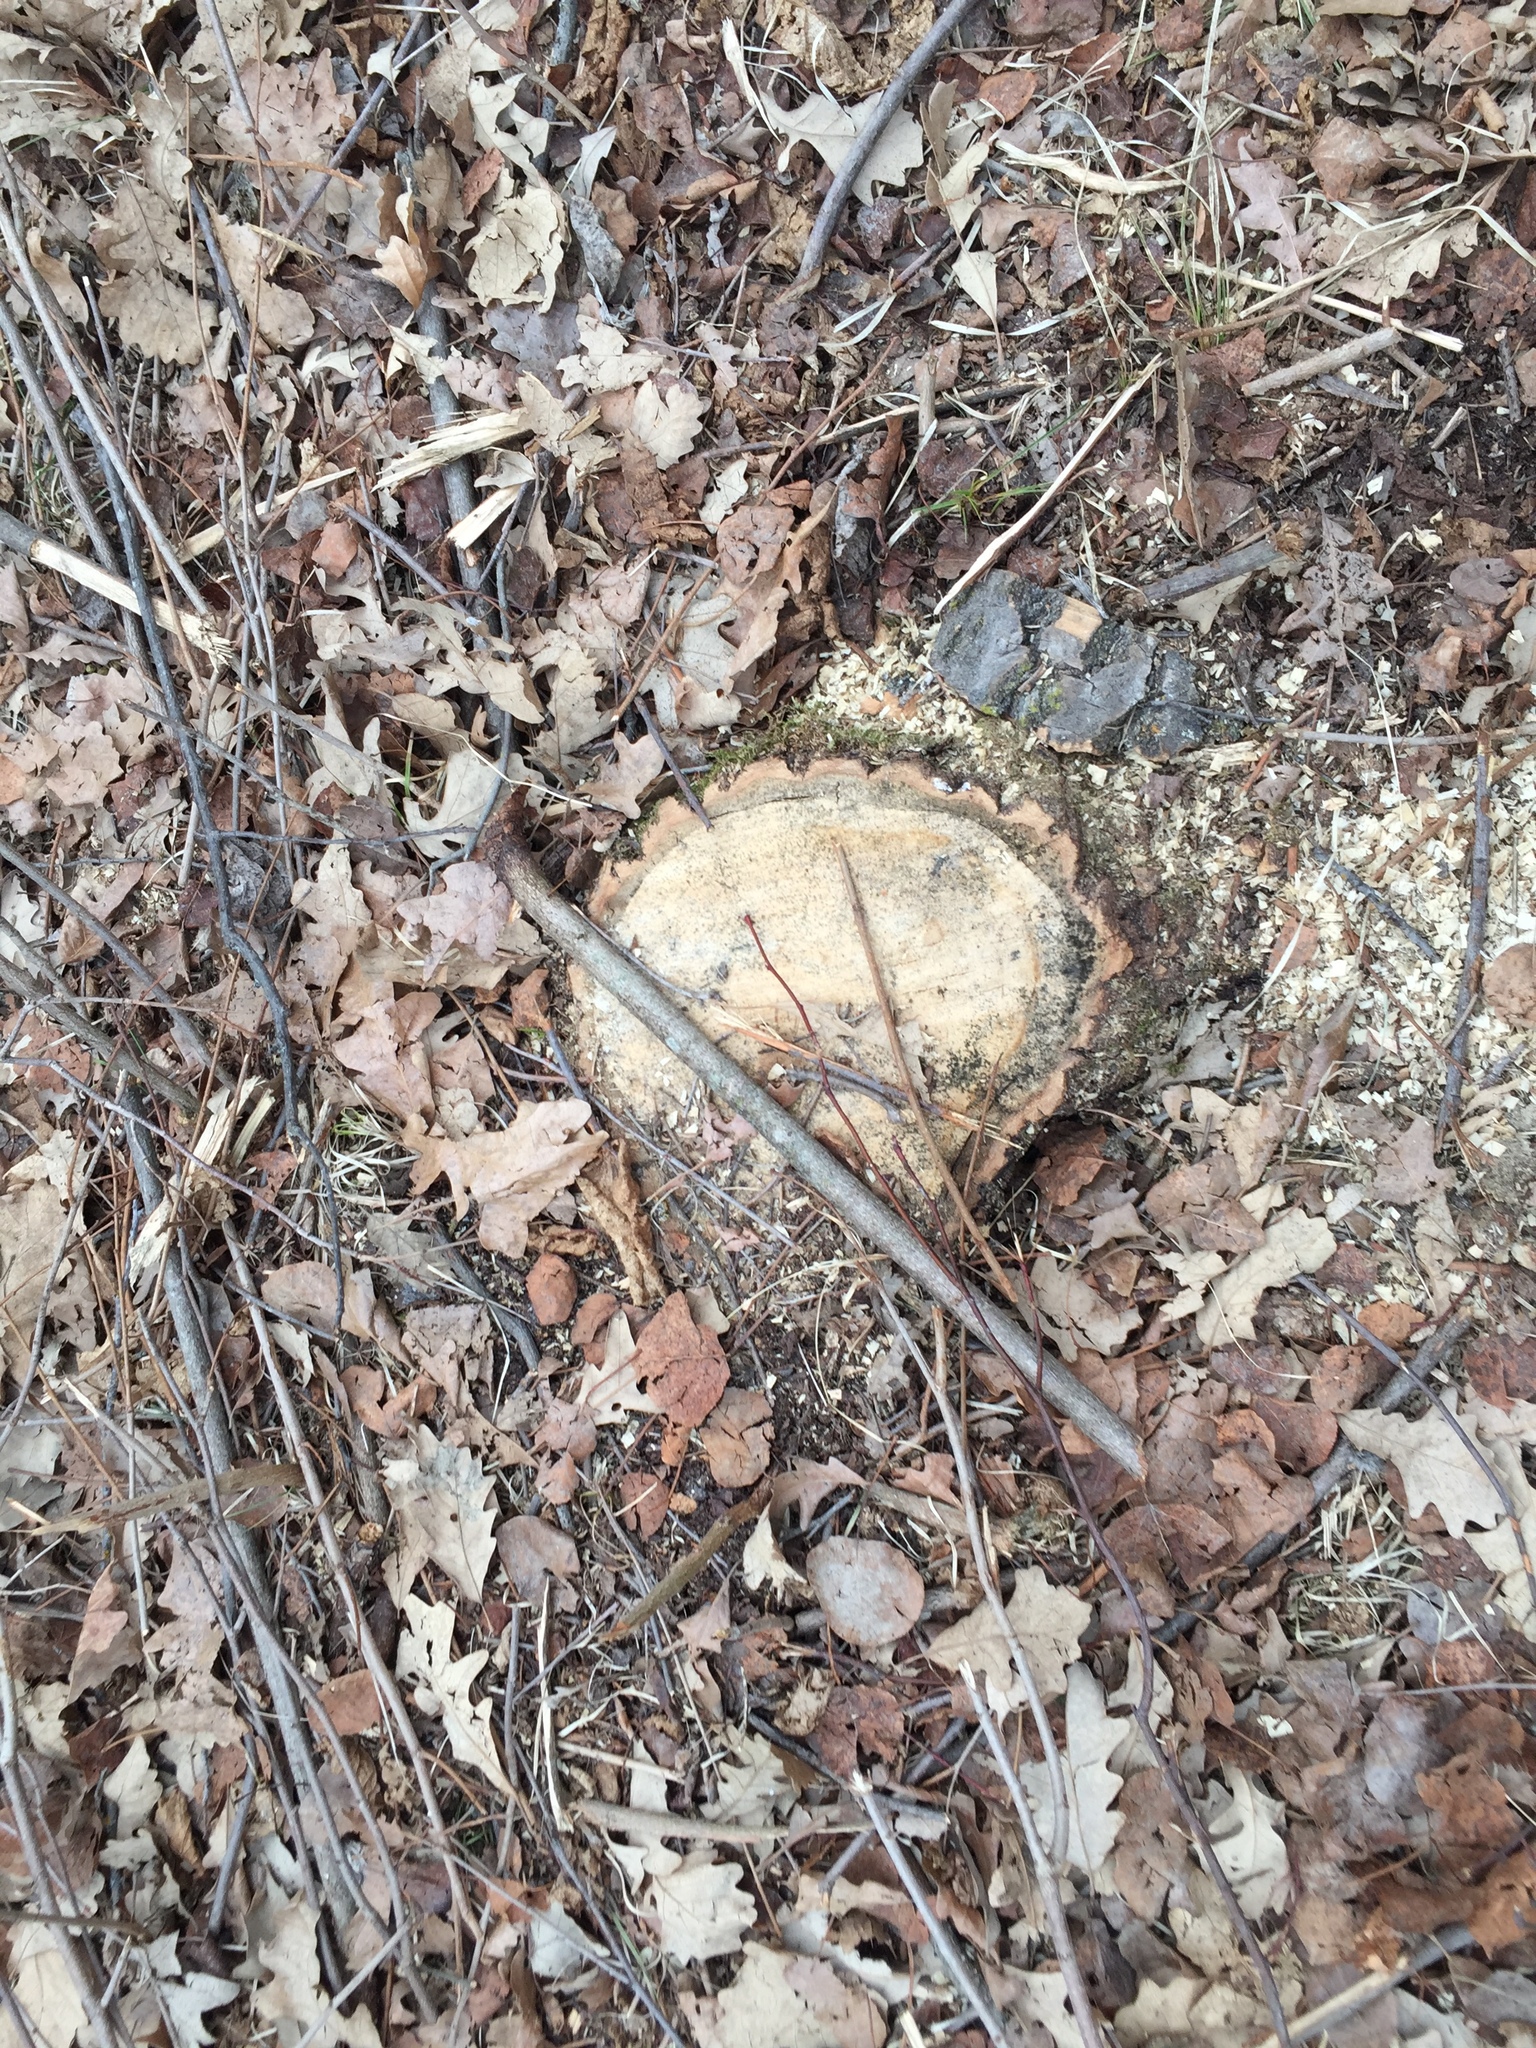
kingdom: Plantae
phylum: Tracheophyta
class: Magnoliopsida
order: Fagales
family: Fagaceae
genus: Quercus
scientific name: Quercus macrocarpa
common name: Bur oak
